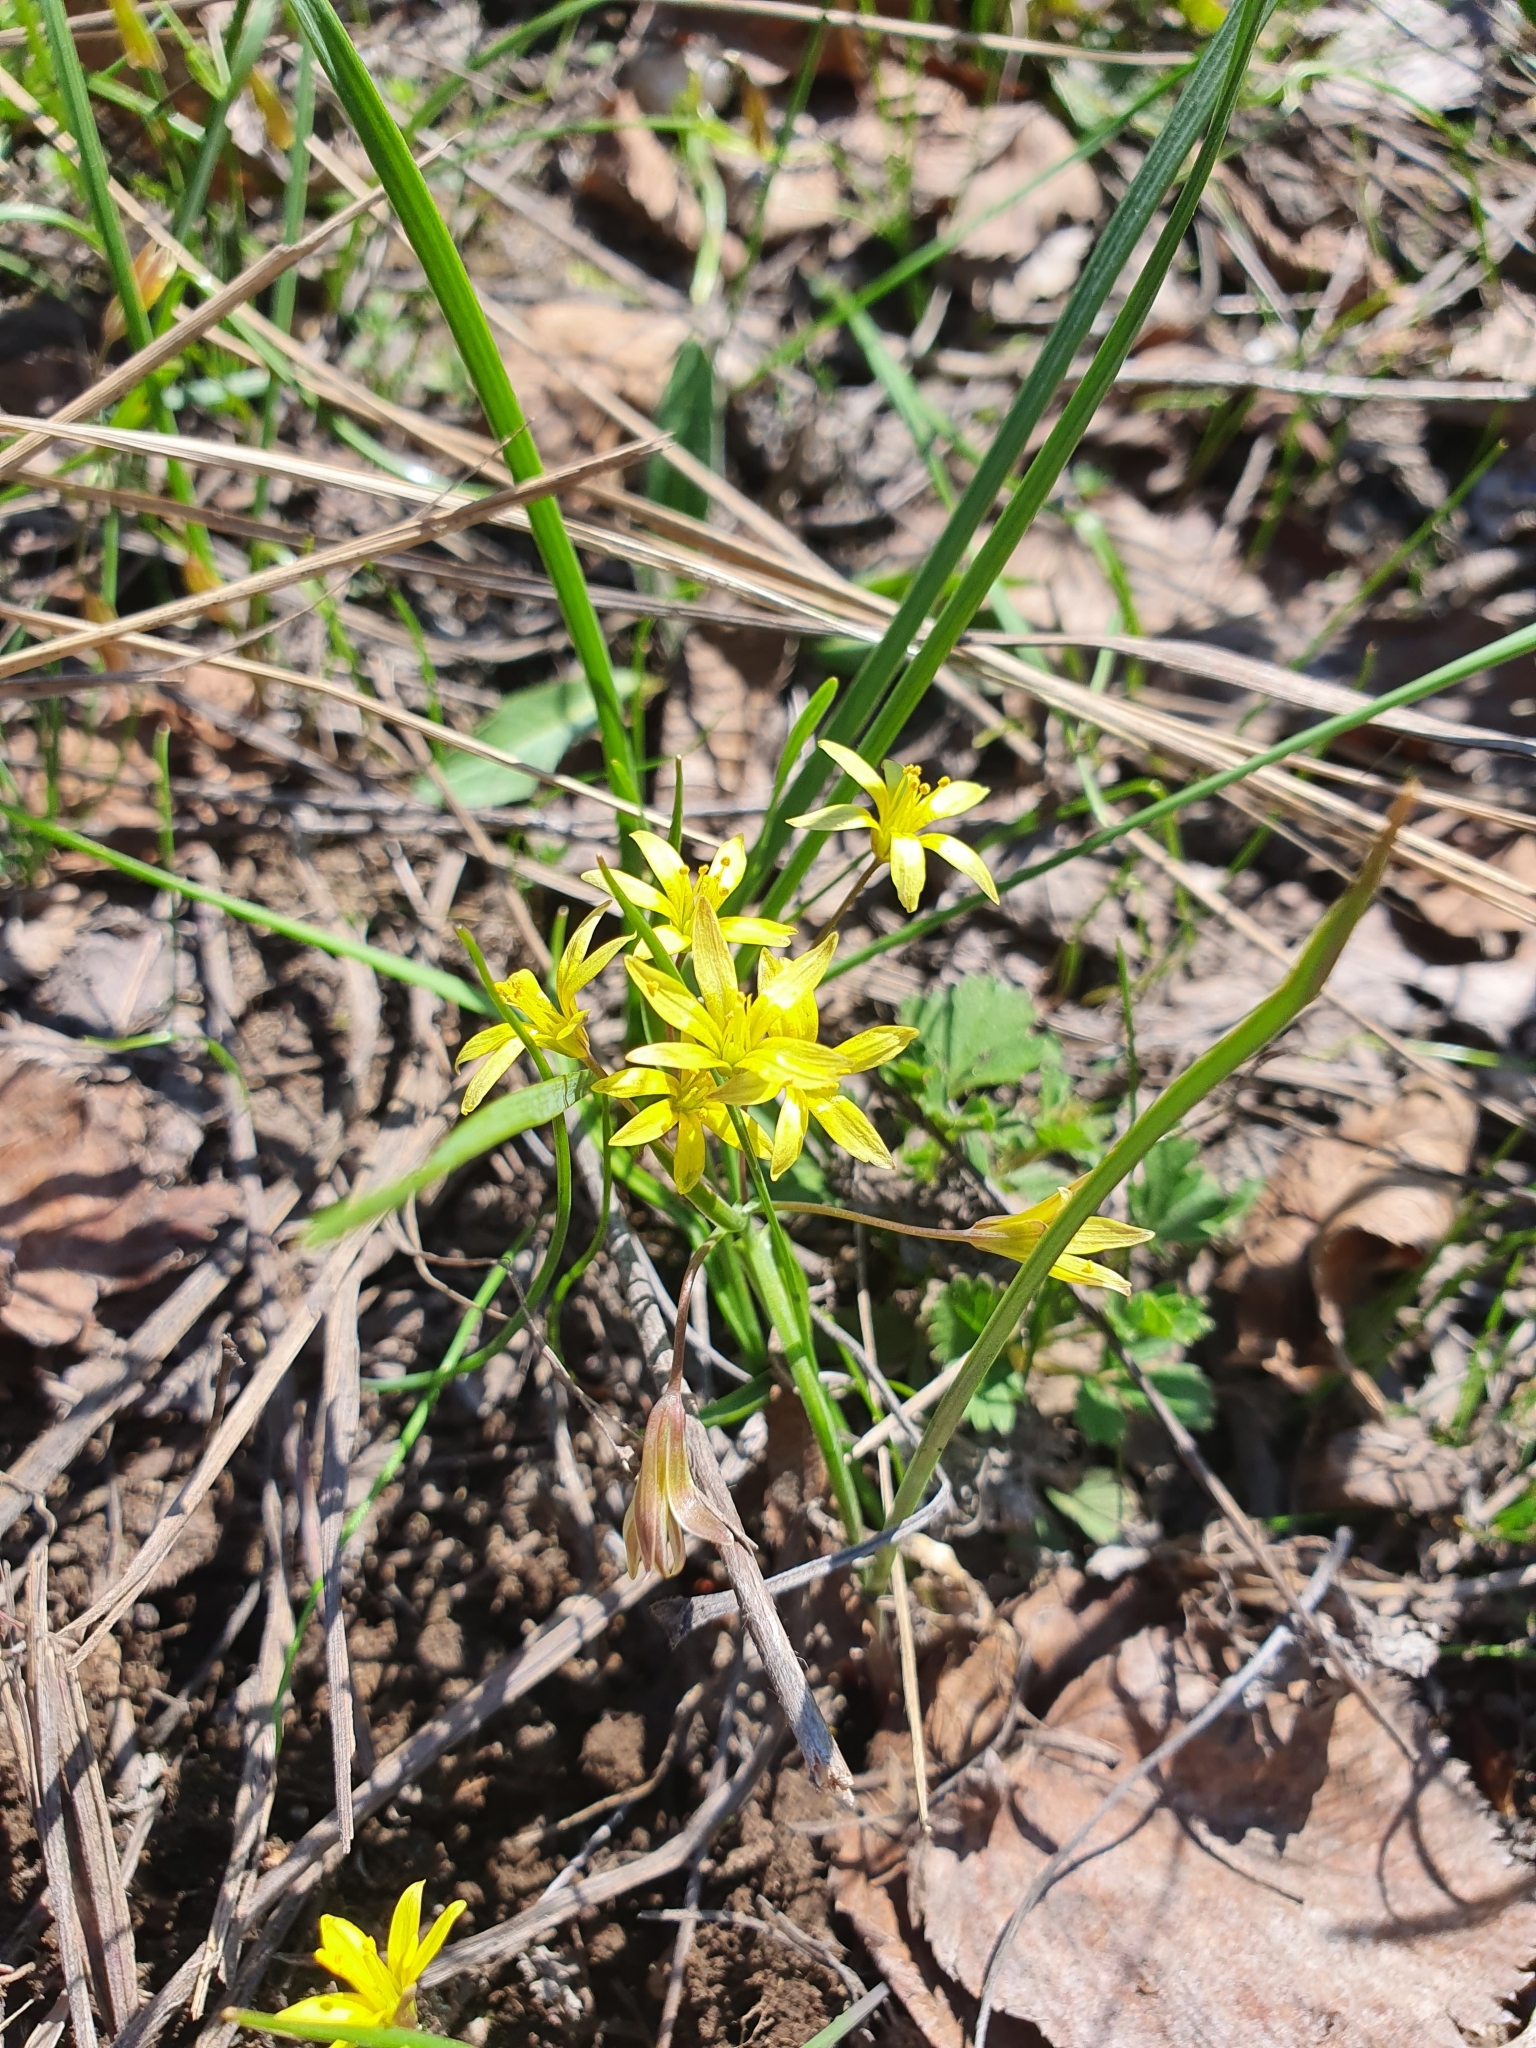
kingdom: Plantae
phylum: Tracheophyta
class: Liliopsida
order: Liliales
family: Liliaceae
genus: Gagea
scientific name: Gagea fragifera
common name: Lily
